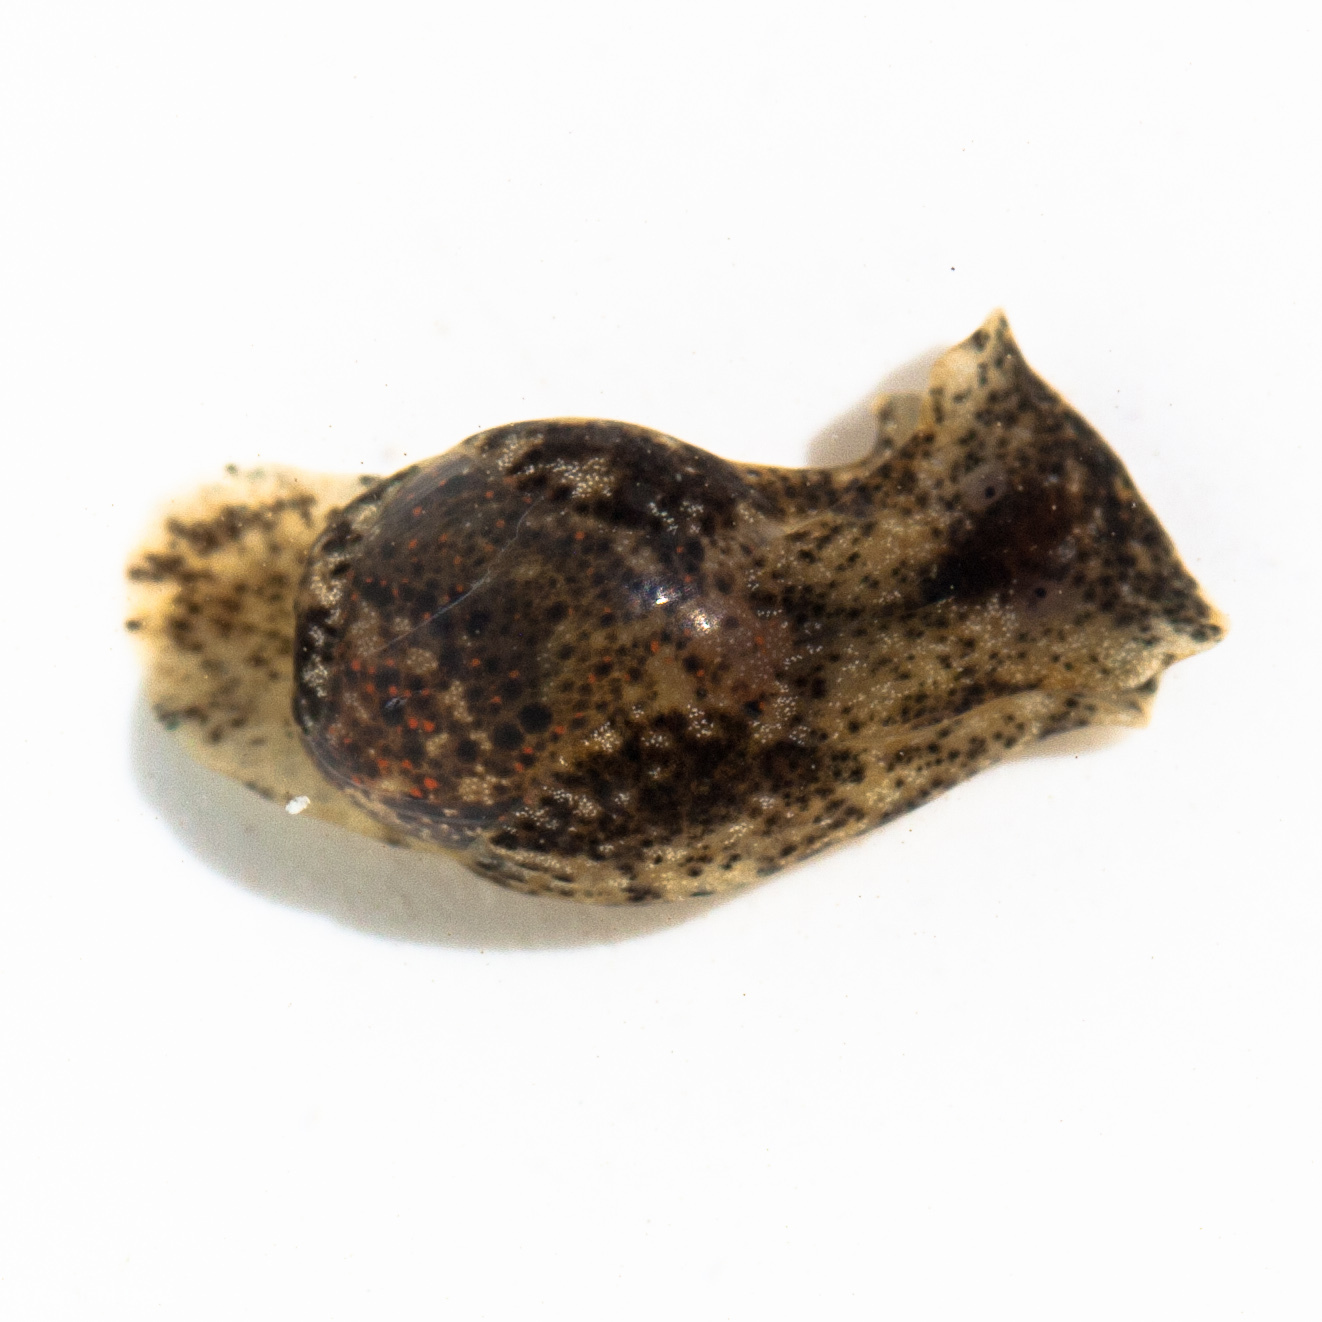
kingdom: Animalia
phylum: Mollusca
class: Gastropoda
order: Cephalaspidea
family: Haminoeidae
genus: Haloa
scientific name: Haloa japonica
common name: Japanese bubble snail
